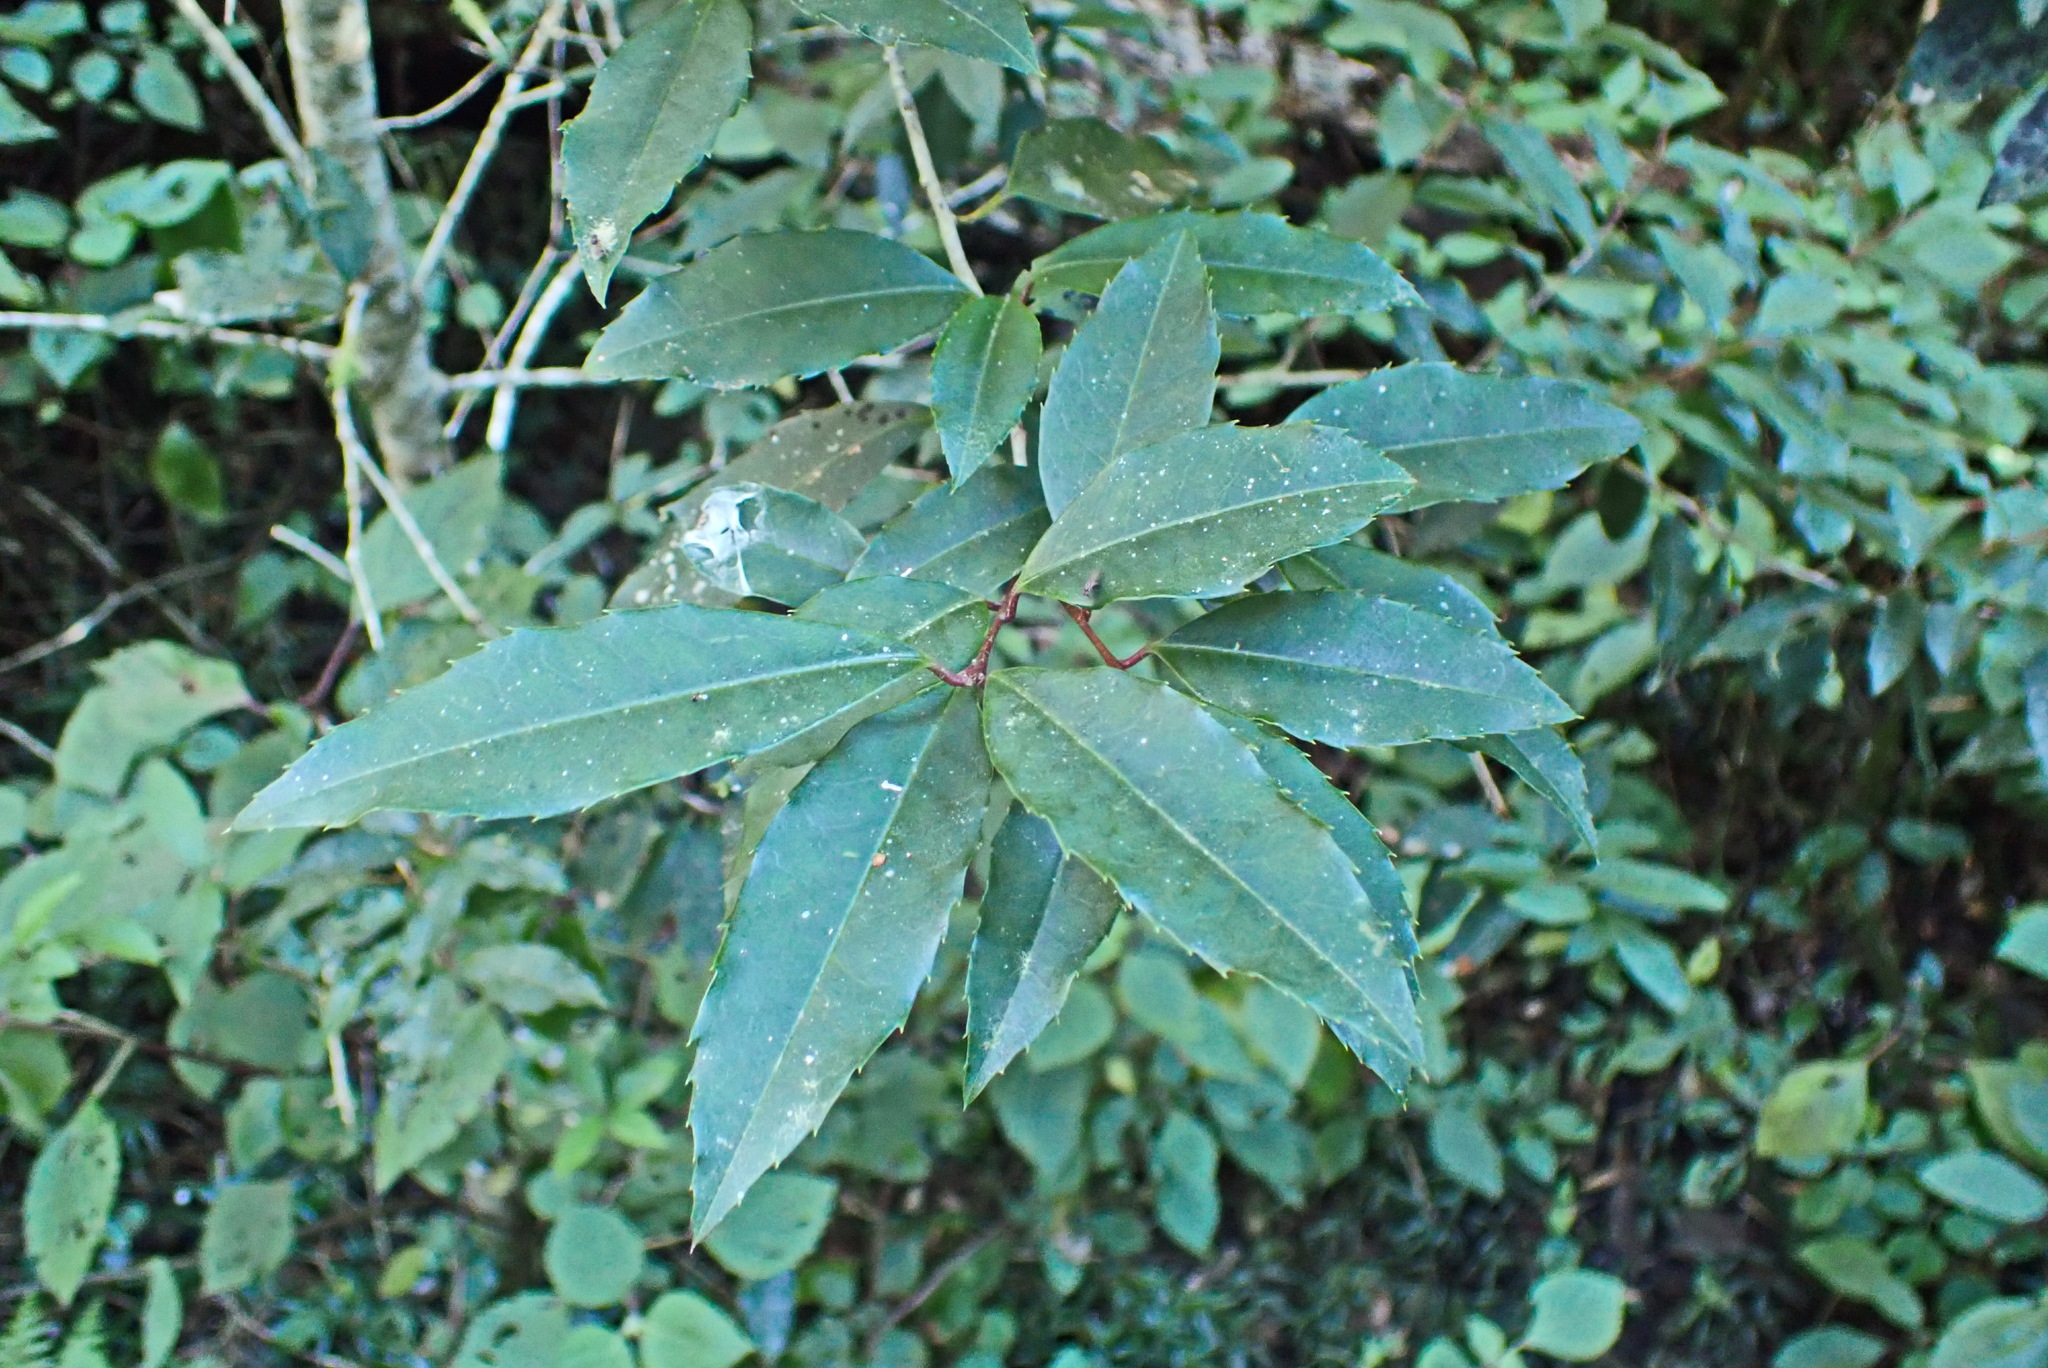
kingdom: Plantae
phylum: Tracheophyta
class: Magnoliopsida
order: Aquifoliales
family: Aquifoliaceae
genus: Ilex
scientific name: Ilex mitis
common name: African holly
